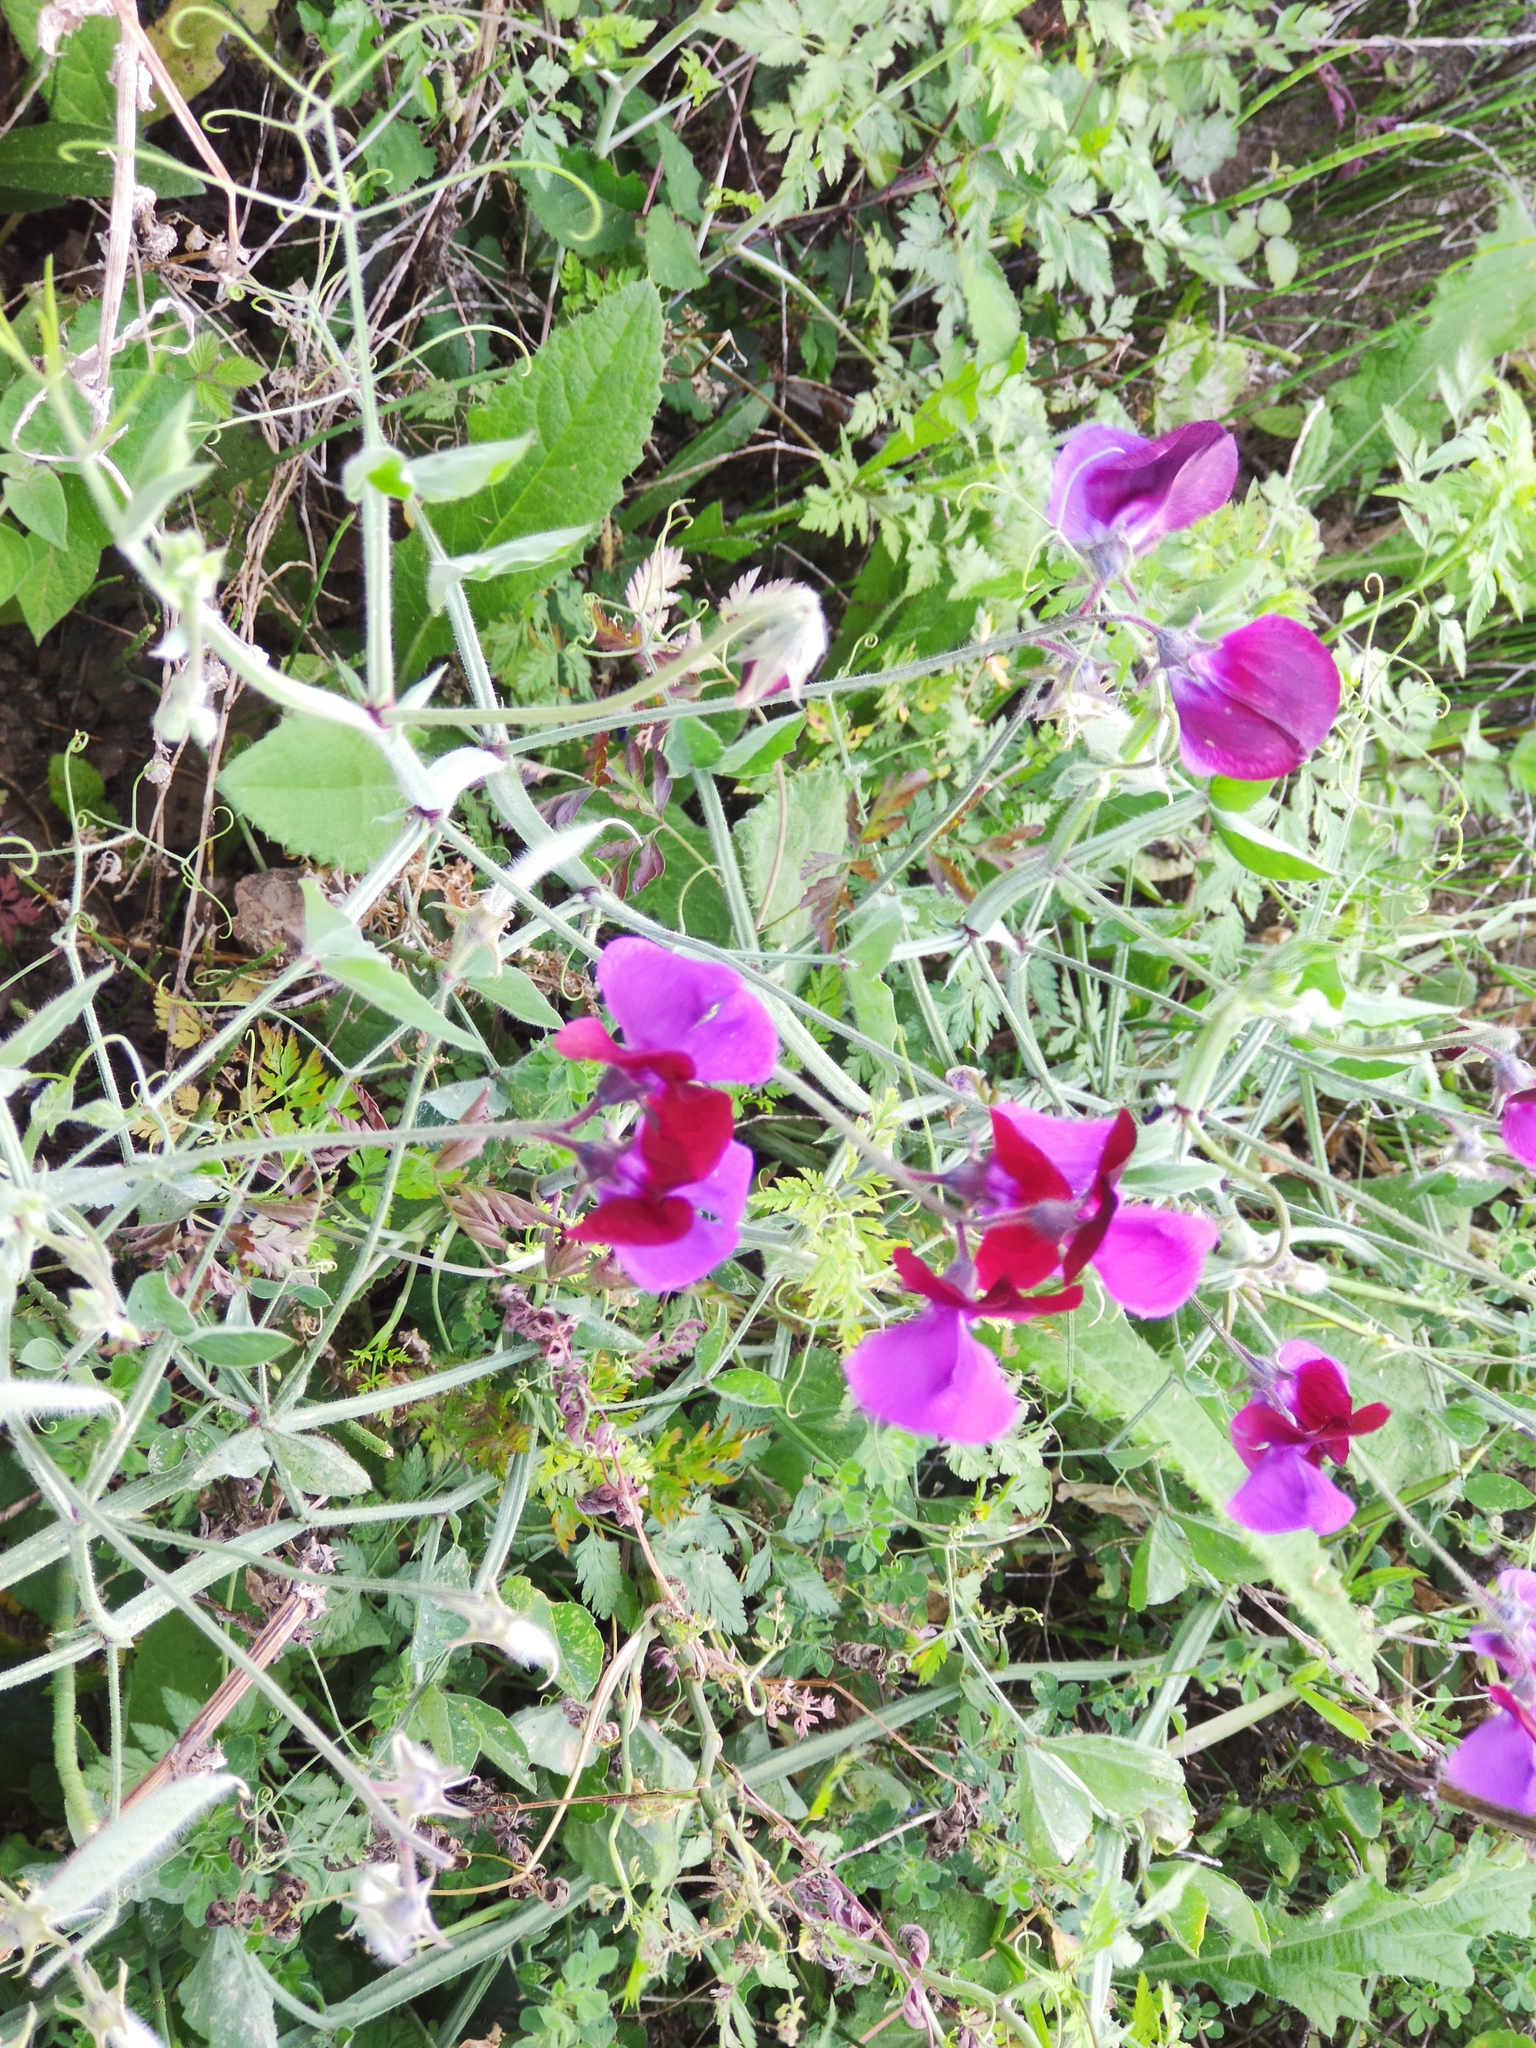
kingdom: Plantae
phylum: Tracheophyta
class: Magnoliopsida
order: Fabales
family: Fabaceae
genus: Lathyrus
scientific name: Lathyrus odoratus
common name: Sweet pea
